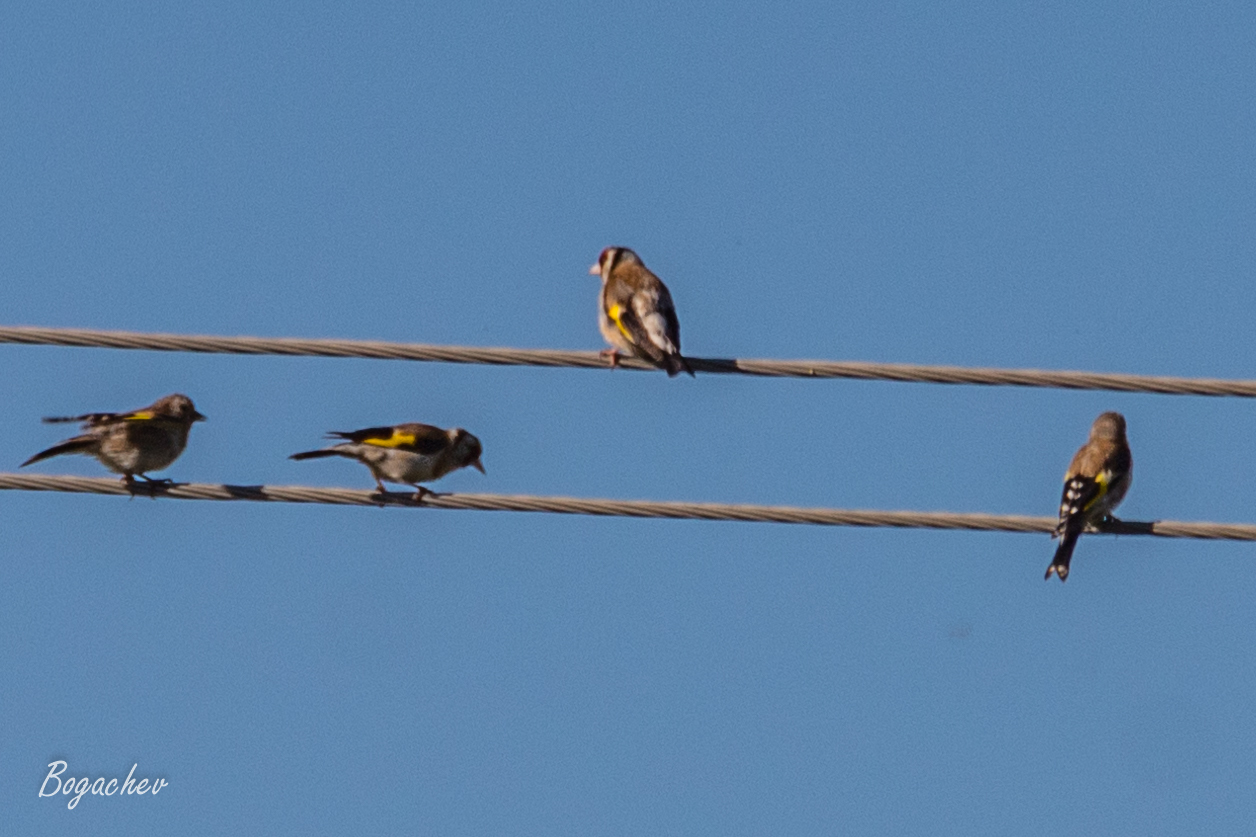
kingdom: Animalia
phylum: Chordata
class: Aves
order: Passeriformes
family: Fringillidae
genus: Carduelis
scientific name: Carduelis carduelis
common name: European goldfinch
